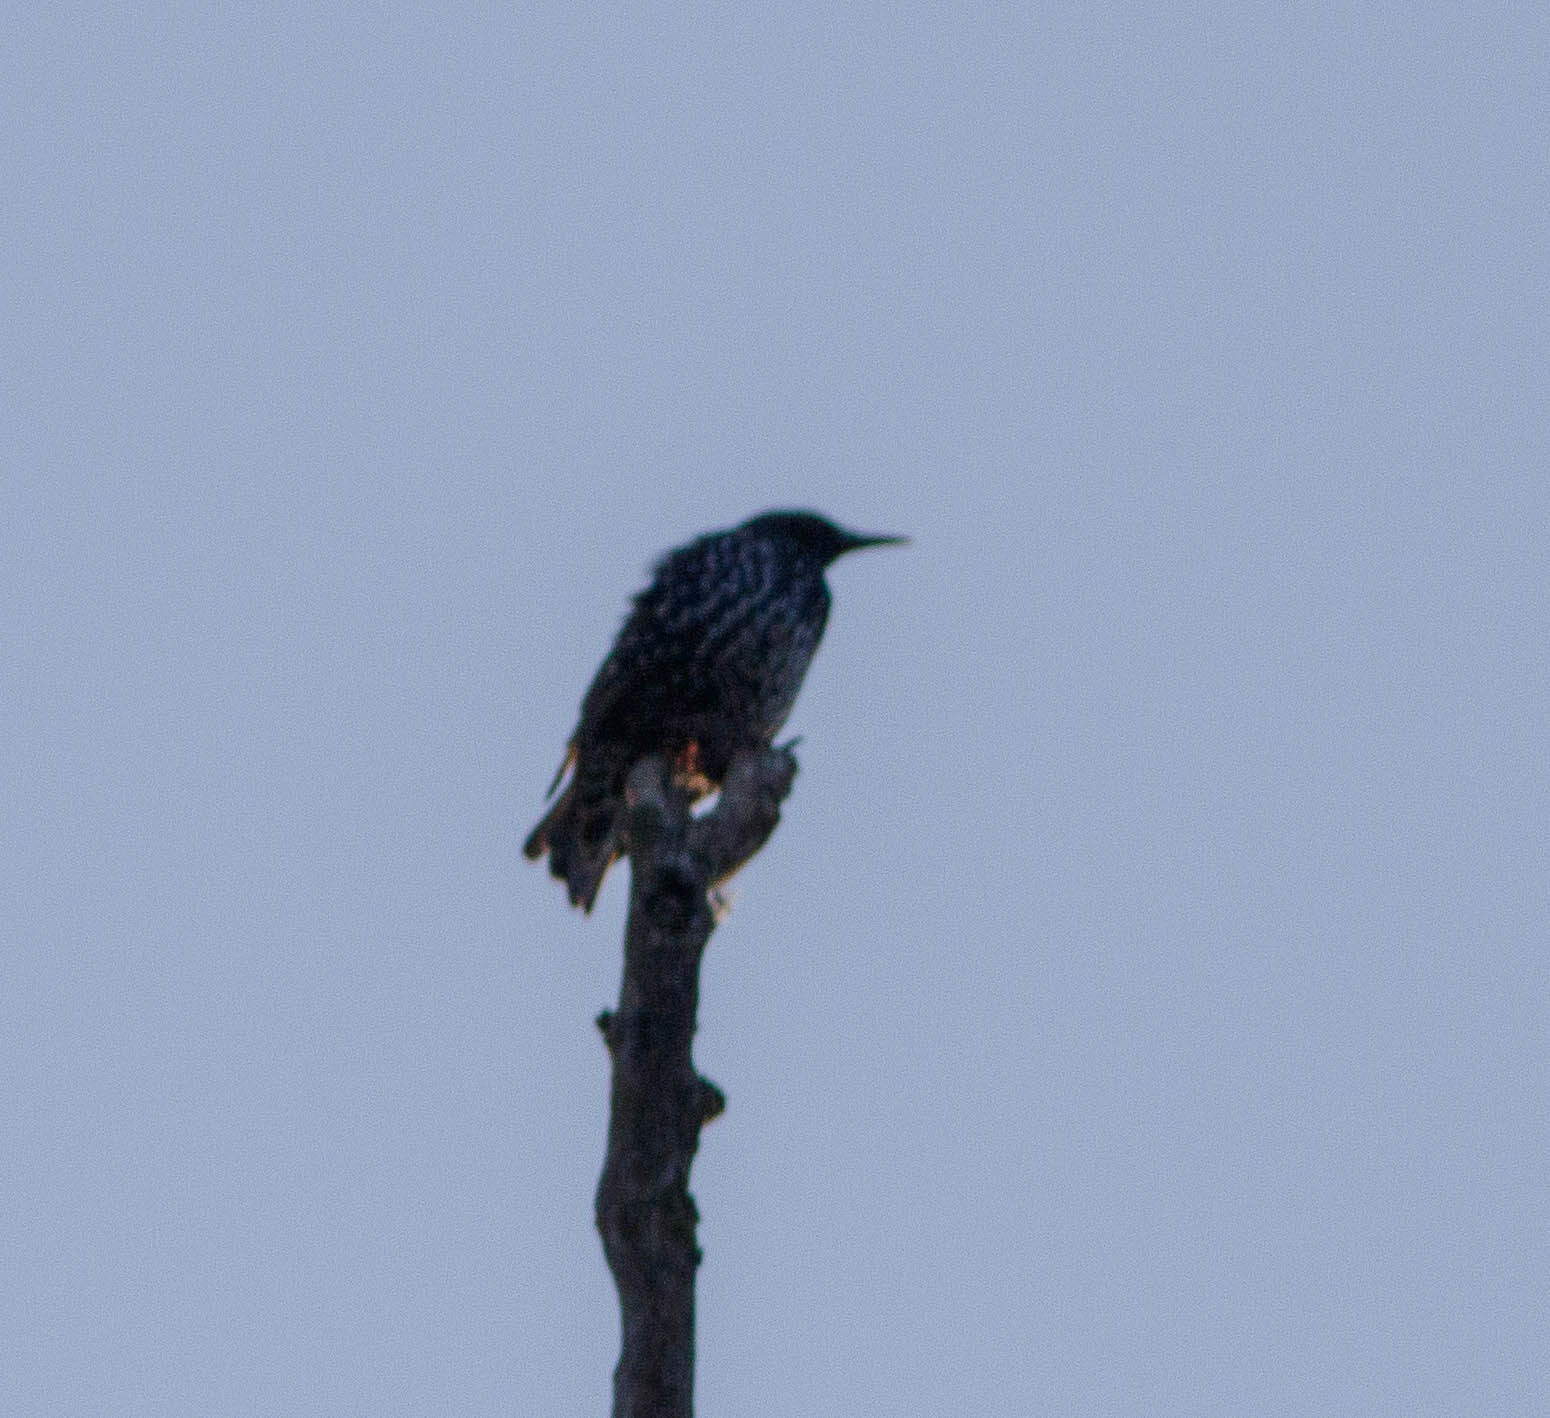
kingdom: Animalia
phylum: Chordata
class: Aves
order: Passeriformes
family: Sturnidae
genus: Sturnus
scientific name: Sturnus vulgaris
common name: Common starling
